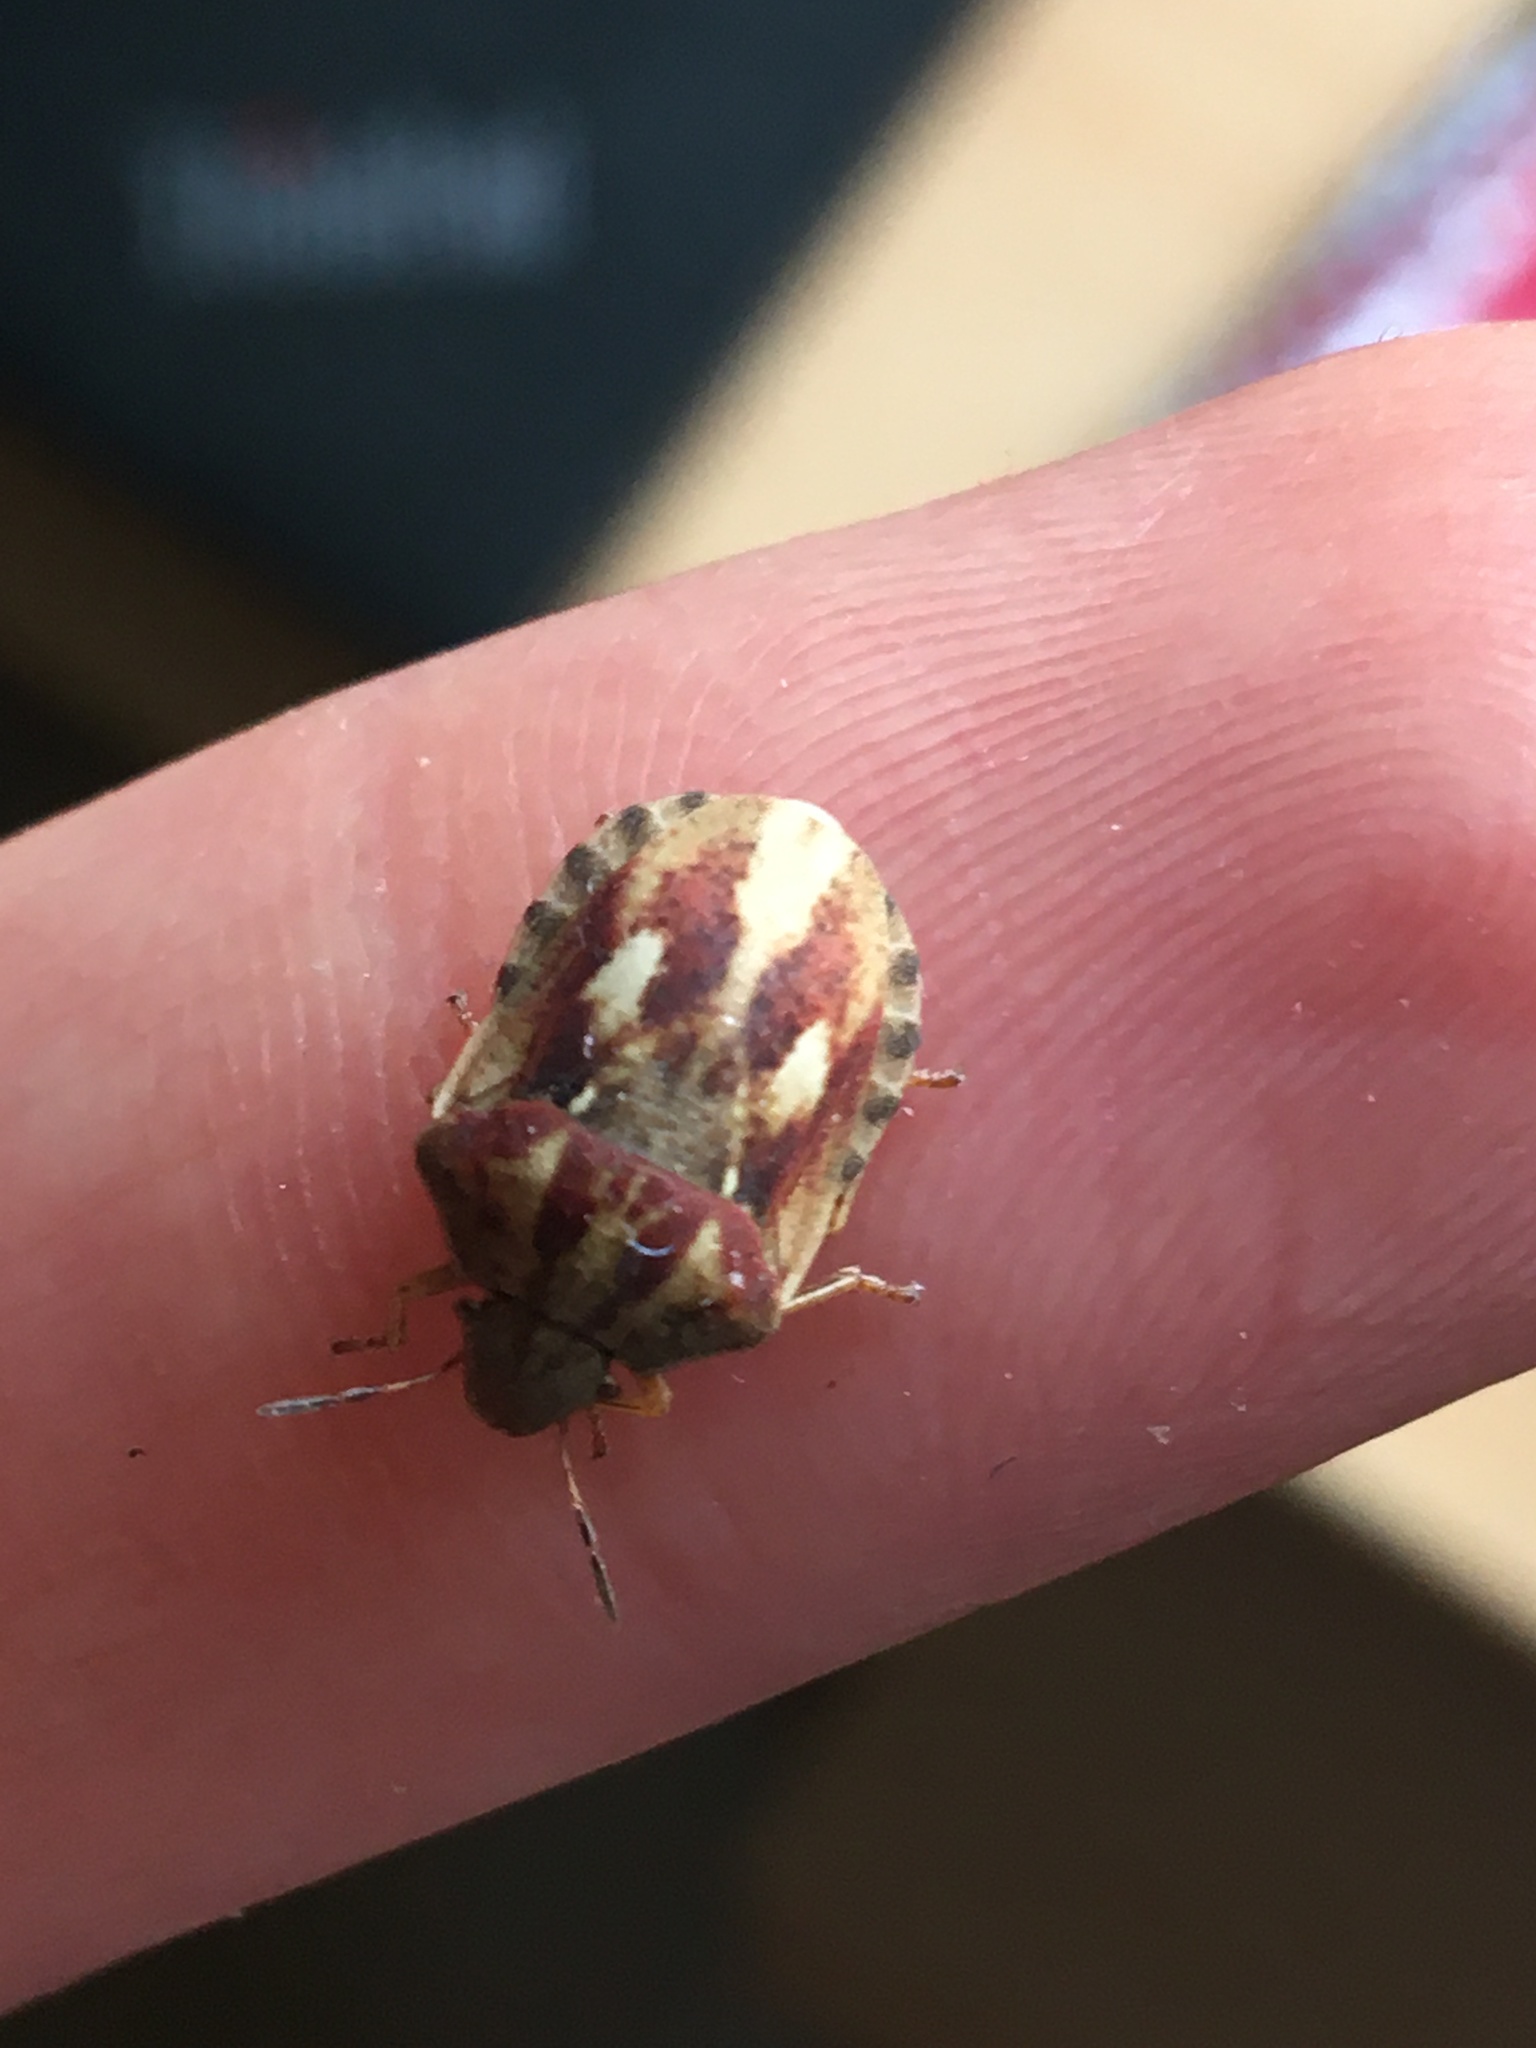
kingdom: Animalia
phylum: Arthropoda
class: Insecta
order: Hemiptera
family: Scutelleridae
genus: Eurygaster
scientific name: Eurygaster testudinaria
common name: Tortoise bug
